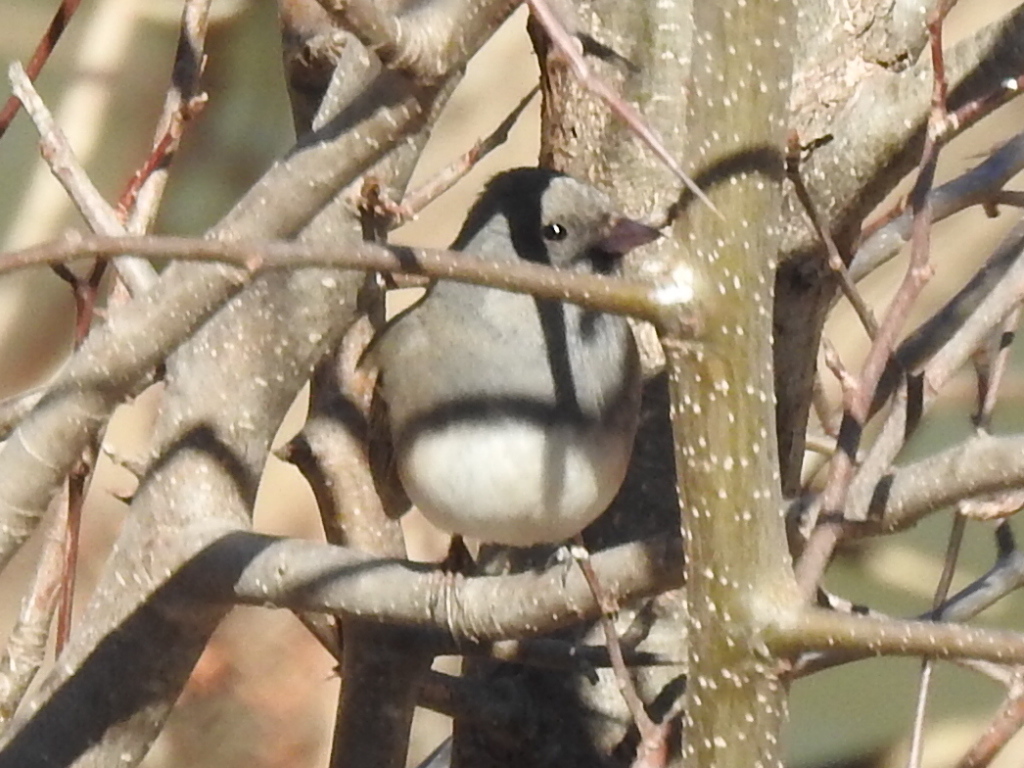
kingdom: Animalia
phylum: Chordata
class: Aves
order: Passeriformes
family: Passerellidae
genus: Junco
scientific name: Junco hyemalis
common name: Dark-eyed junco
